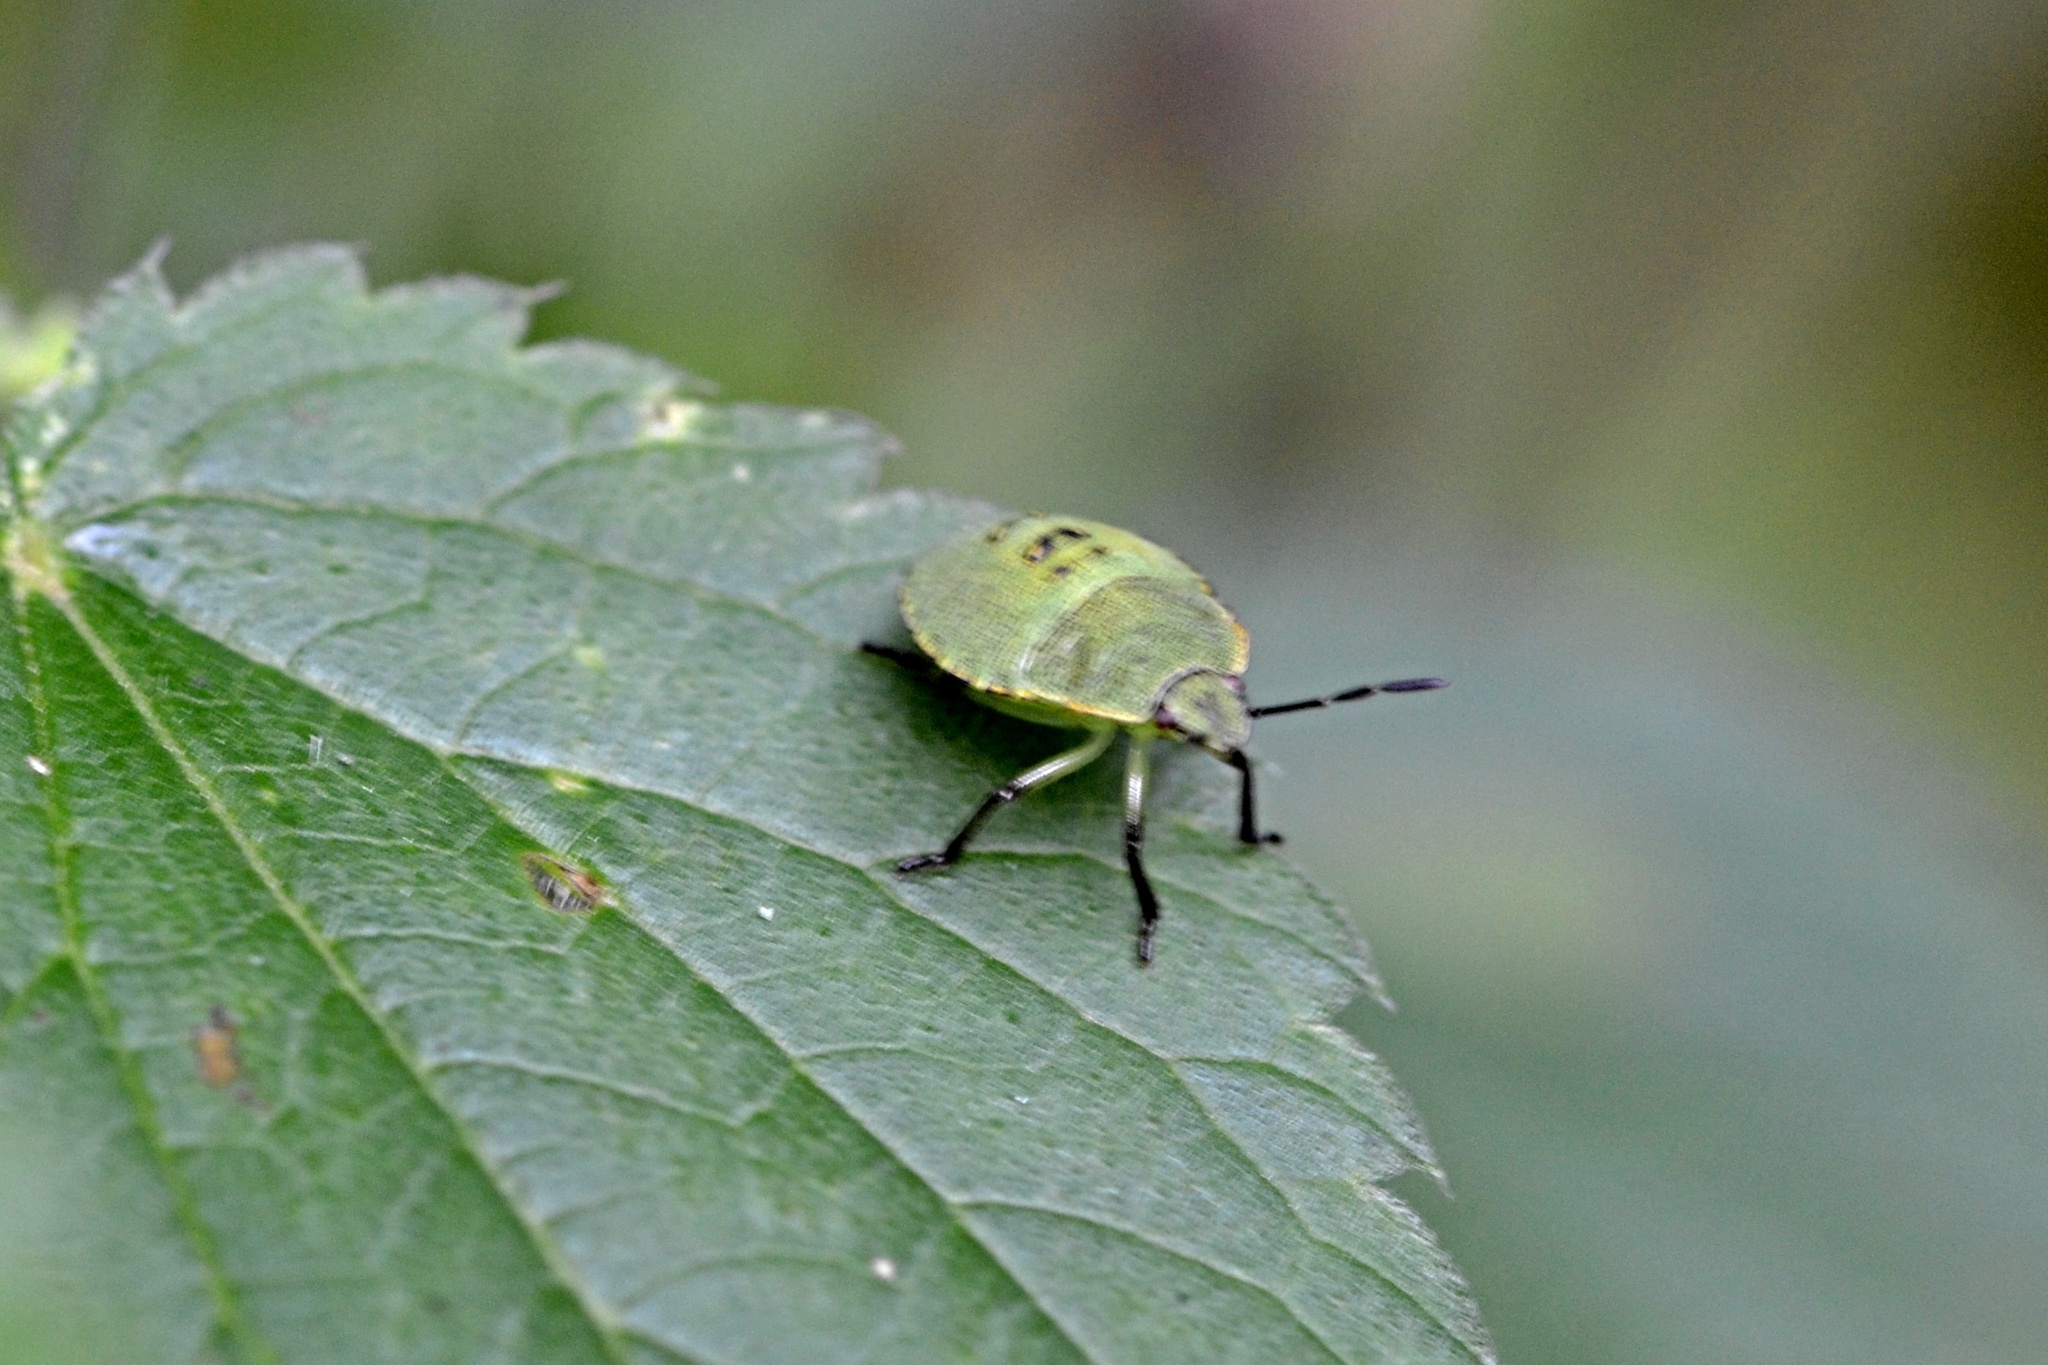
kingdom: Animalia
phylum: Arthropoda
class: Insecta
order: Hemiptera
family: Pentatomidae
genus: Palomena
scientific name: Palomena prasina
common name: Green shieldbug
